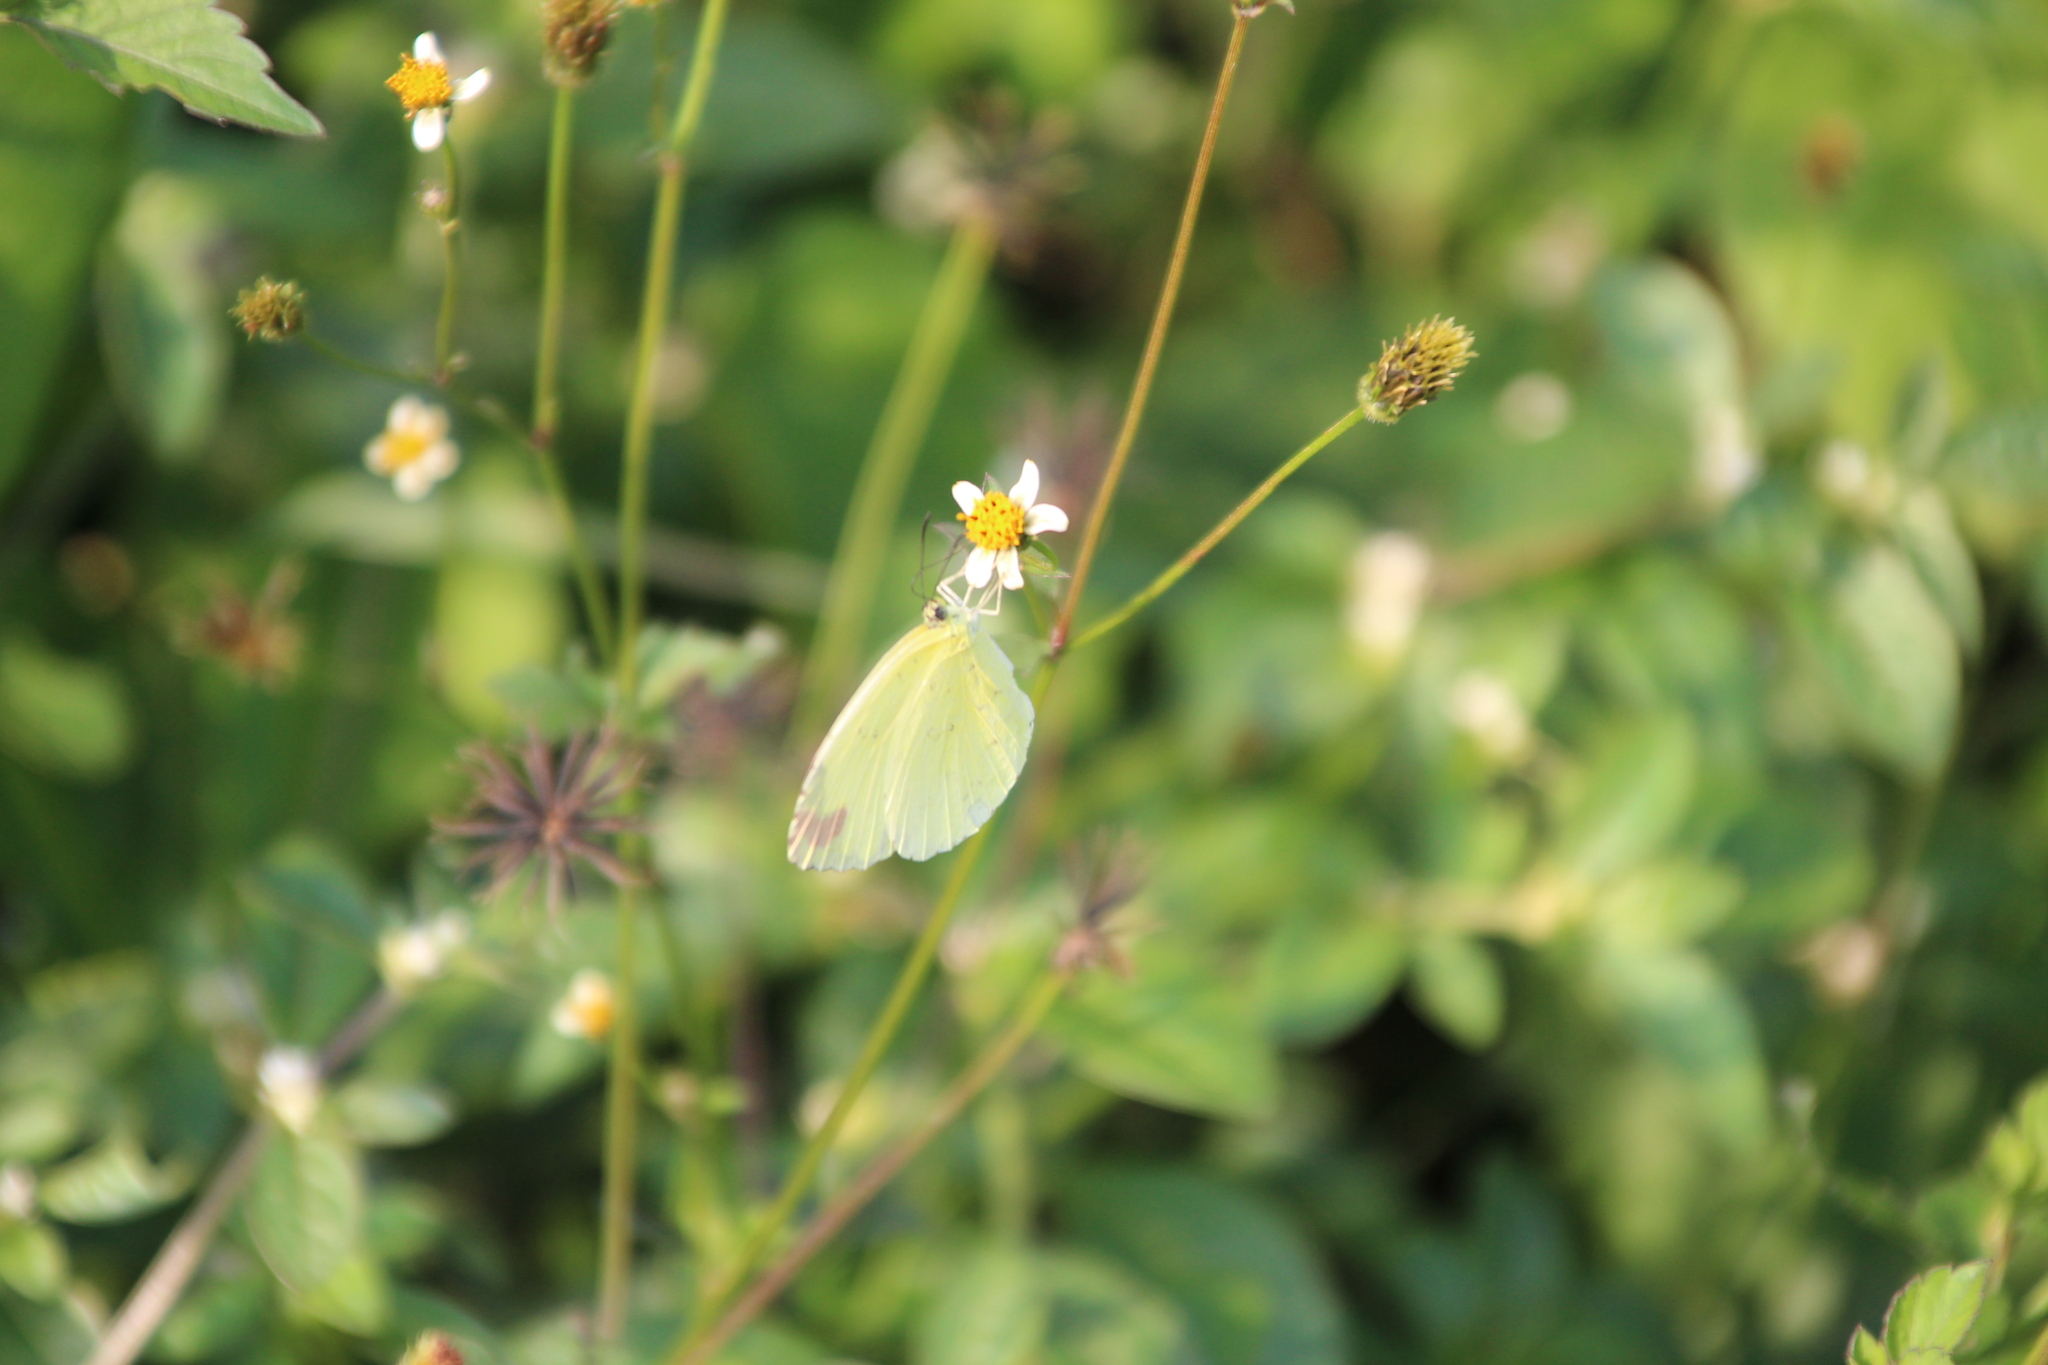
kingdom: Animalia
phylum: Arthropoda
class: Insecta
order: Lepidoptera
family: Pieridae
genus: Eurema
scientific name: Eurema floricola
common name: Malagasy grass yellow
